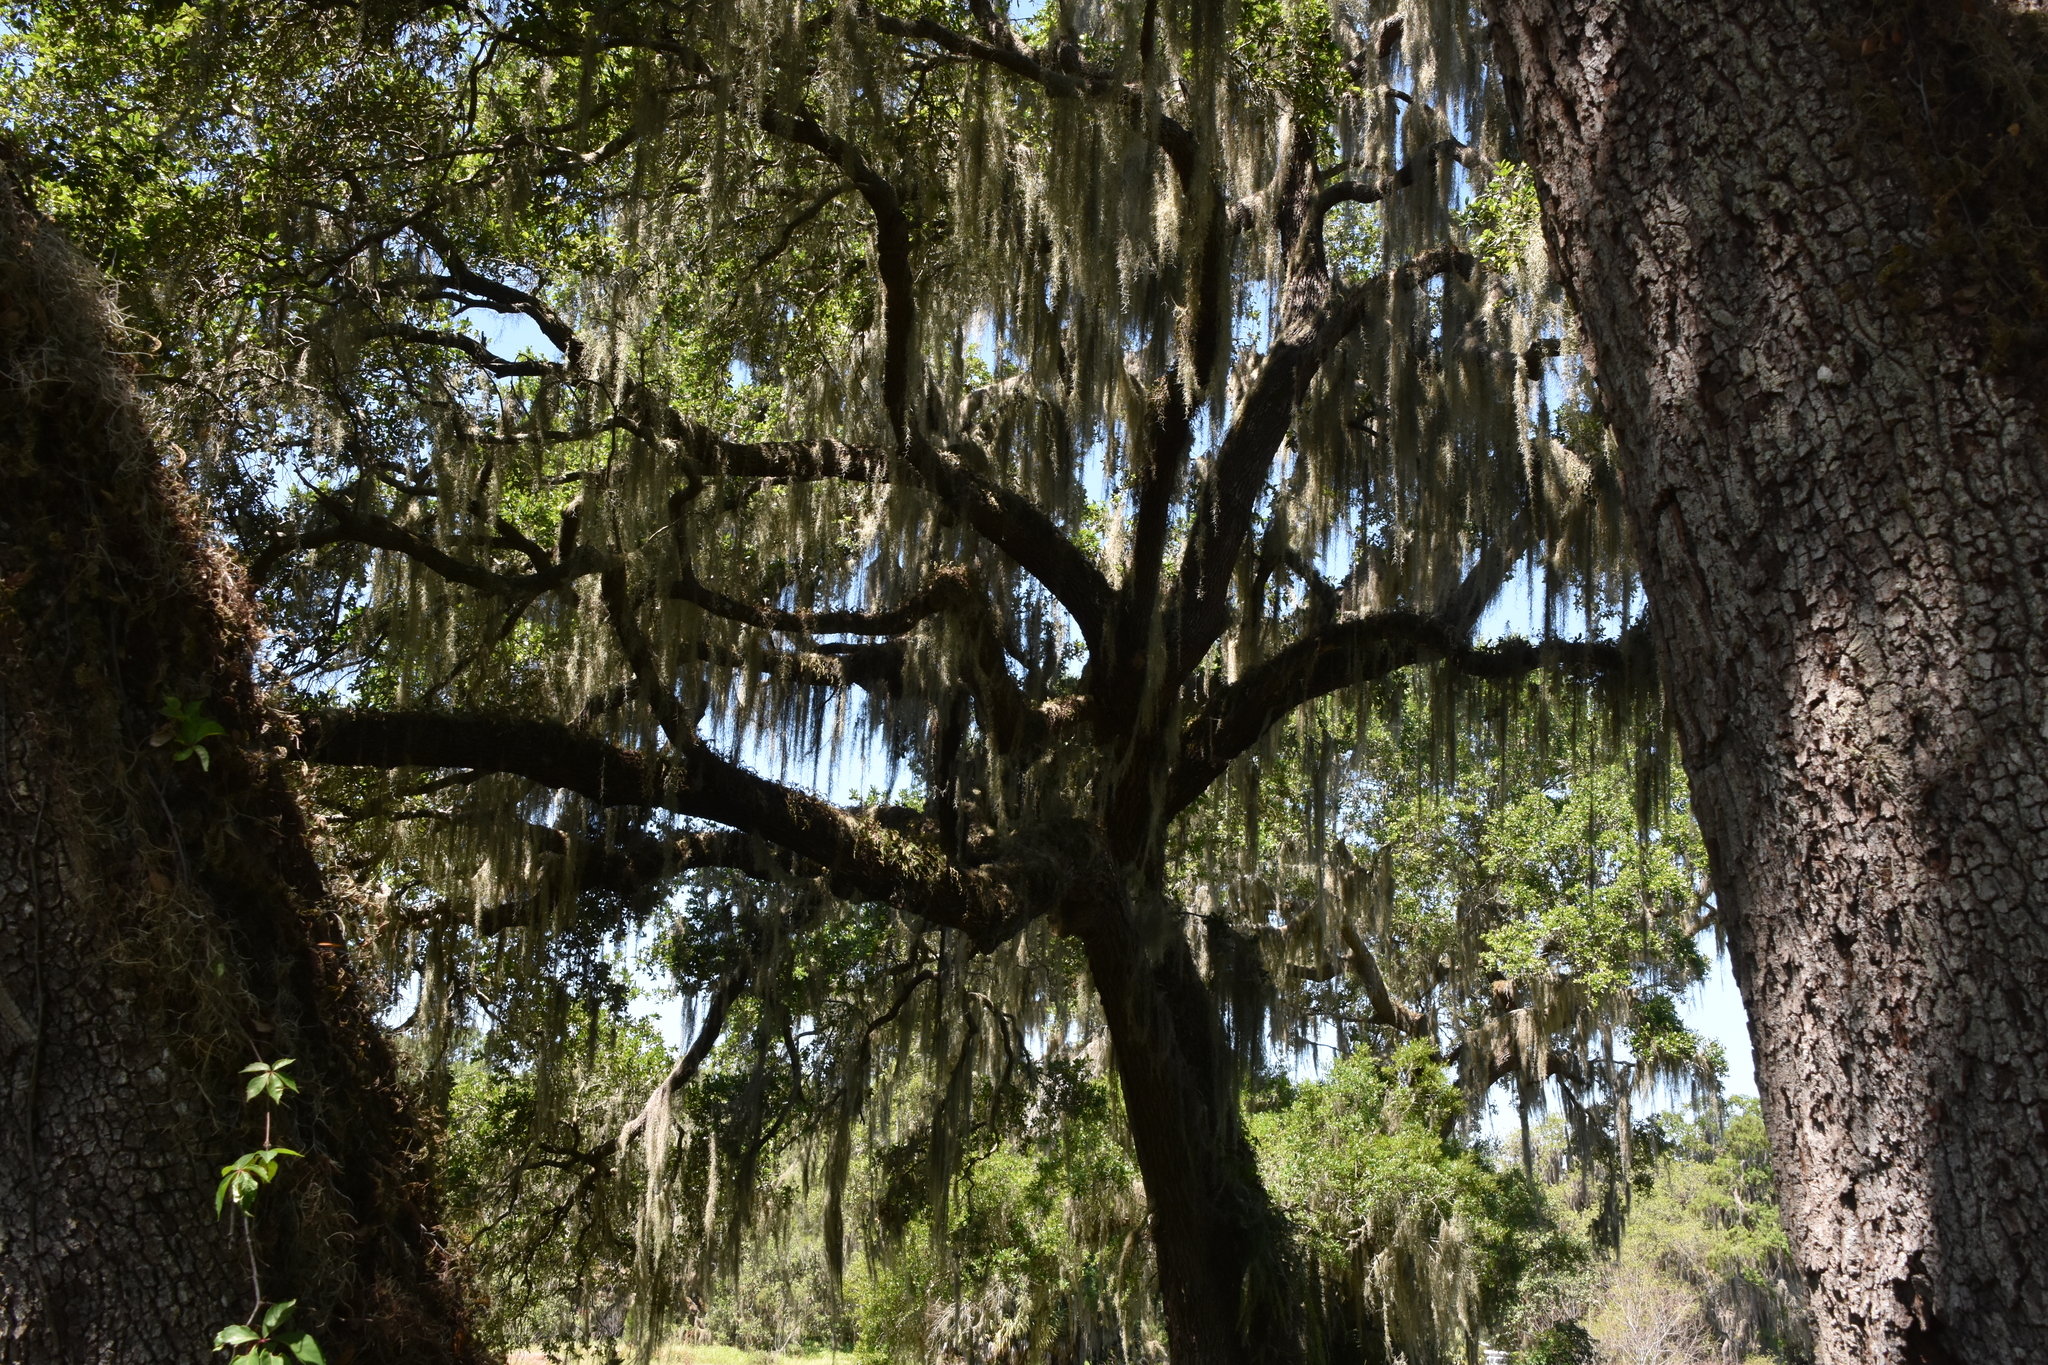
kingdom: Plantae
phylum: Tracheophyta
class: Liliopsida
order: Poales
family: Bromeliaceae
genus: Tillandsia
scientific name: Tillandsia usneoides
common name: Spanish moss
